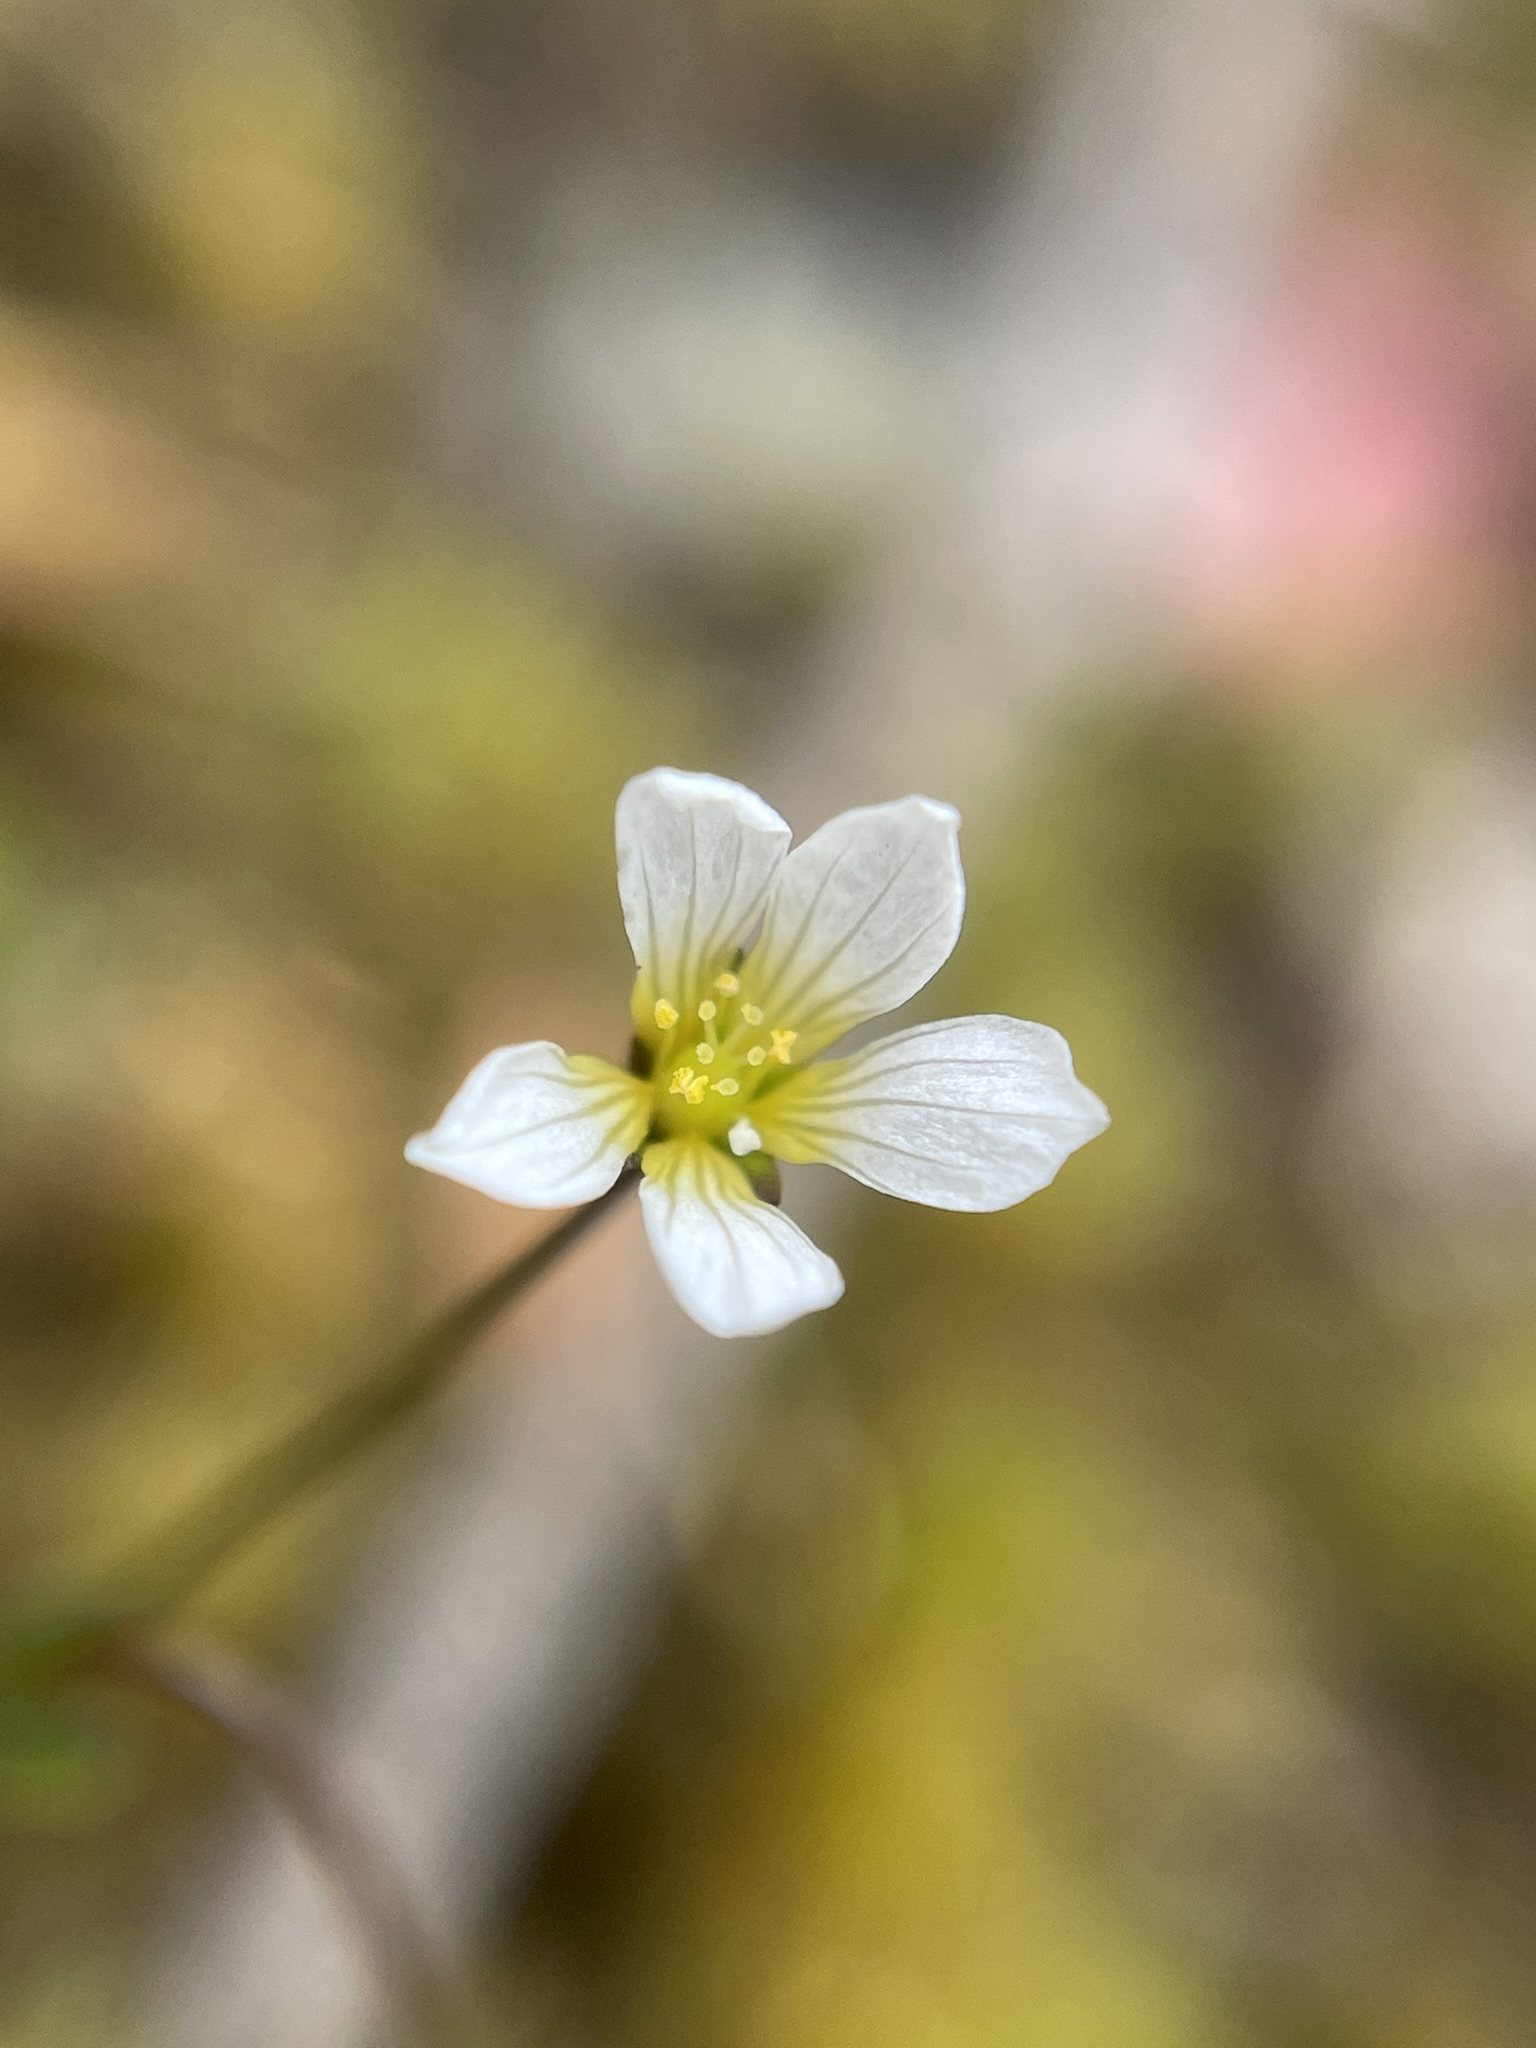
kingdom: Plantae
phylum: Tracheophyta
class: Magnoliopsida
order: Malpighiales
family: Linaceae
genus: Linum
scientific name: Linum catharticum
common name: Fairy flax
